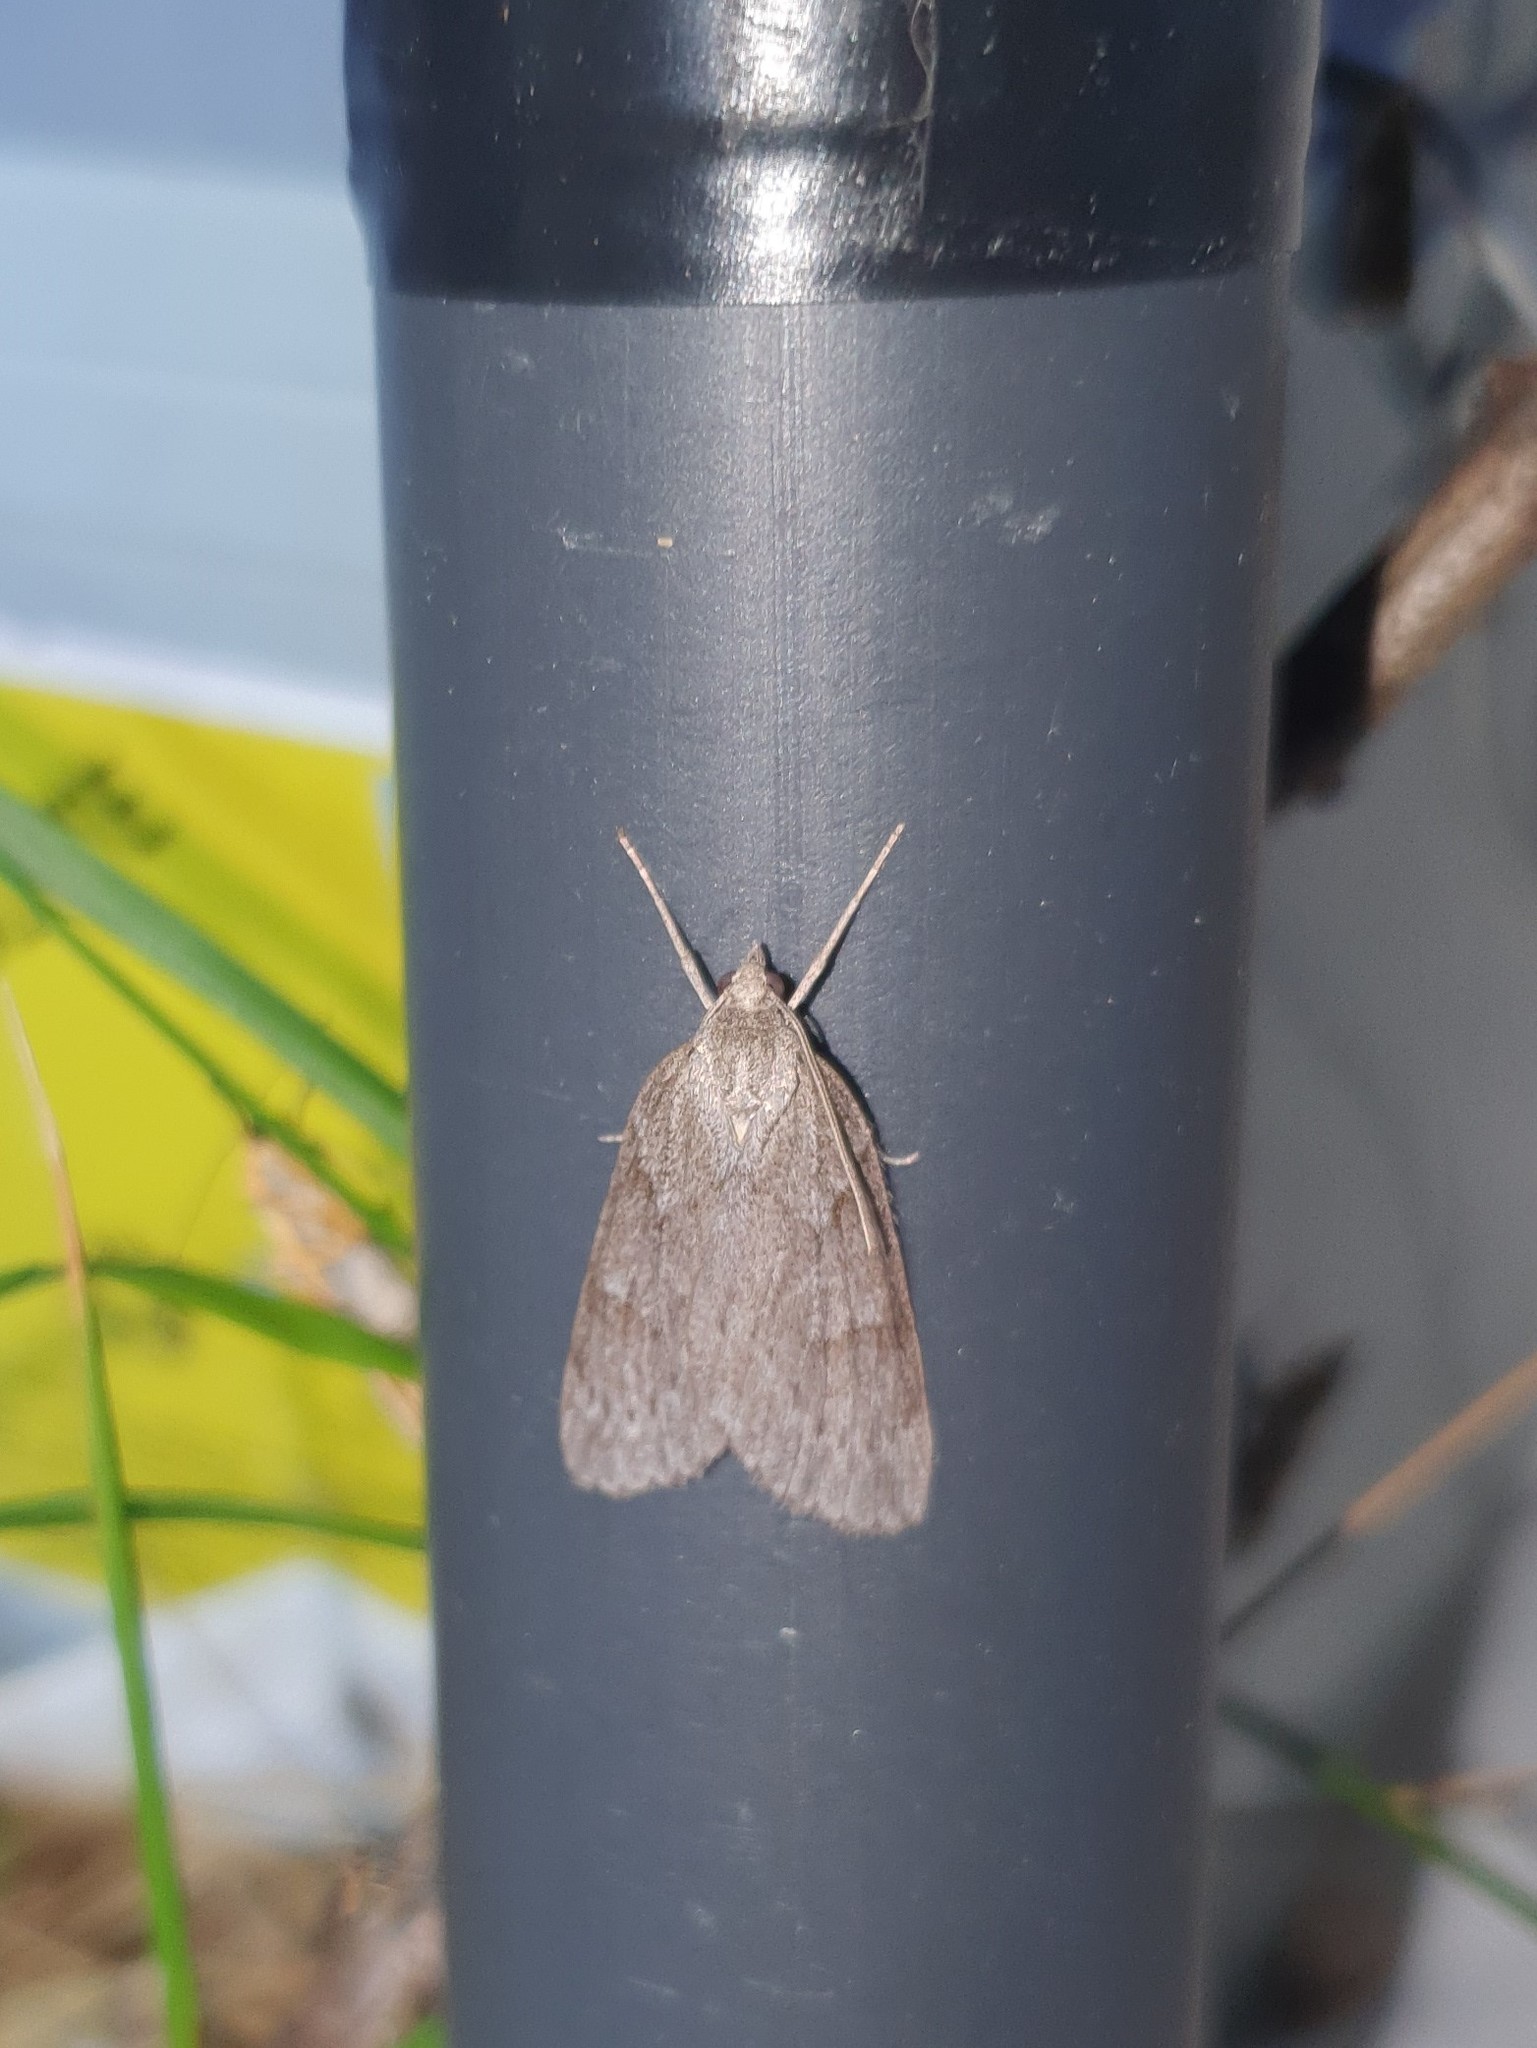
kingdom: Animalia
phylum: Arthropoda
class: Insecta
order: Lepidoptera
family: Geometridae
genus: Pachycnemia
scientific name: Pachycnemia hippocastanaria
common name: Horse chestnut
